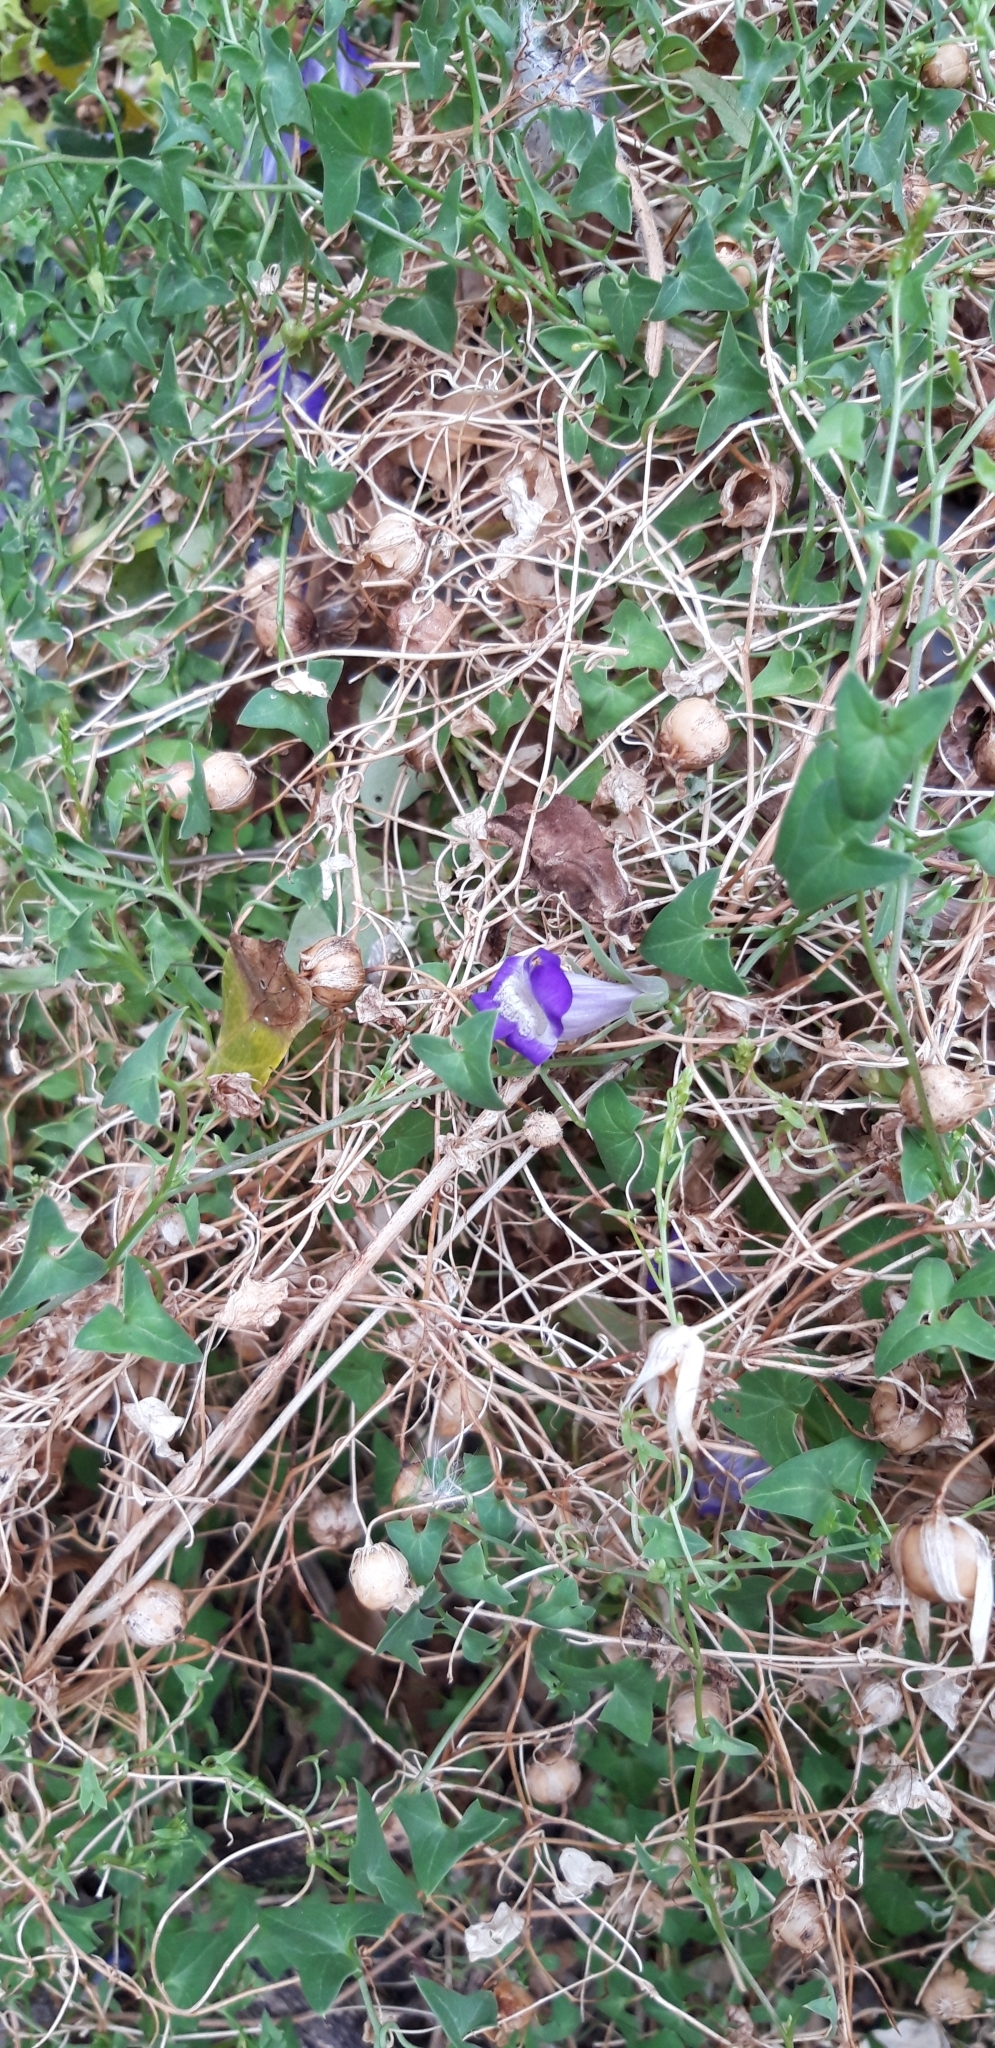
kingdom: Plantae
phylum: Tracheophyta
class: Magnoliopsida
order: Lamiales
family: Plantaginaceae
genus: Maurandella
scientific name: Maurandella antirrhiniflora
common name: Violet twining-snapdragon
